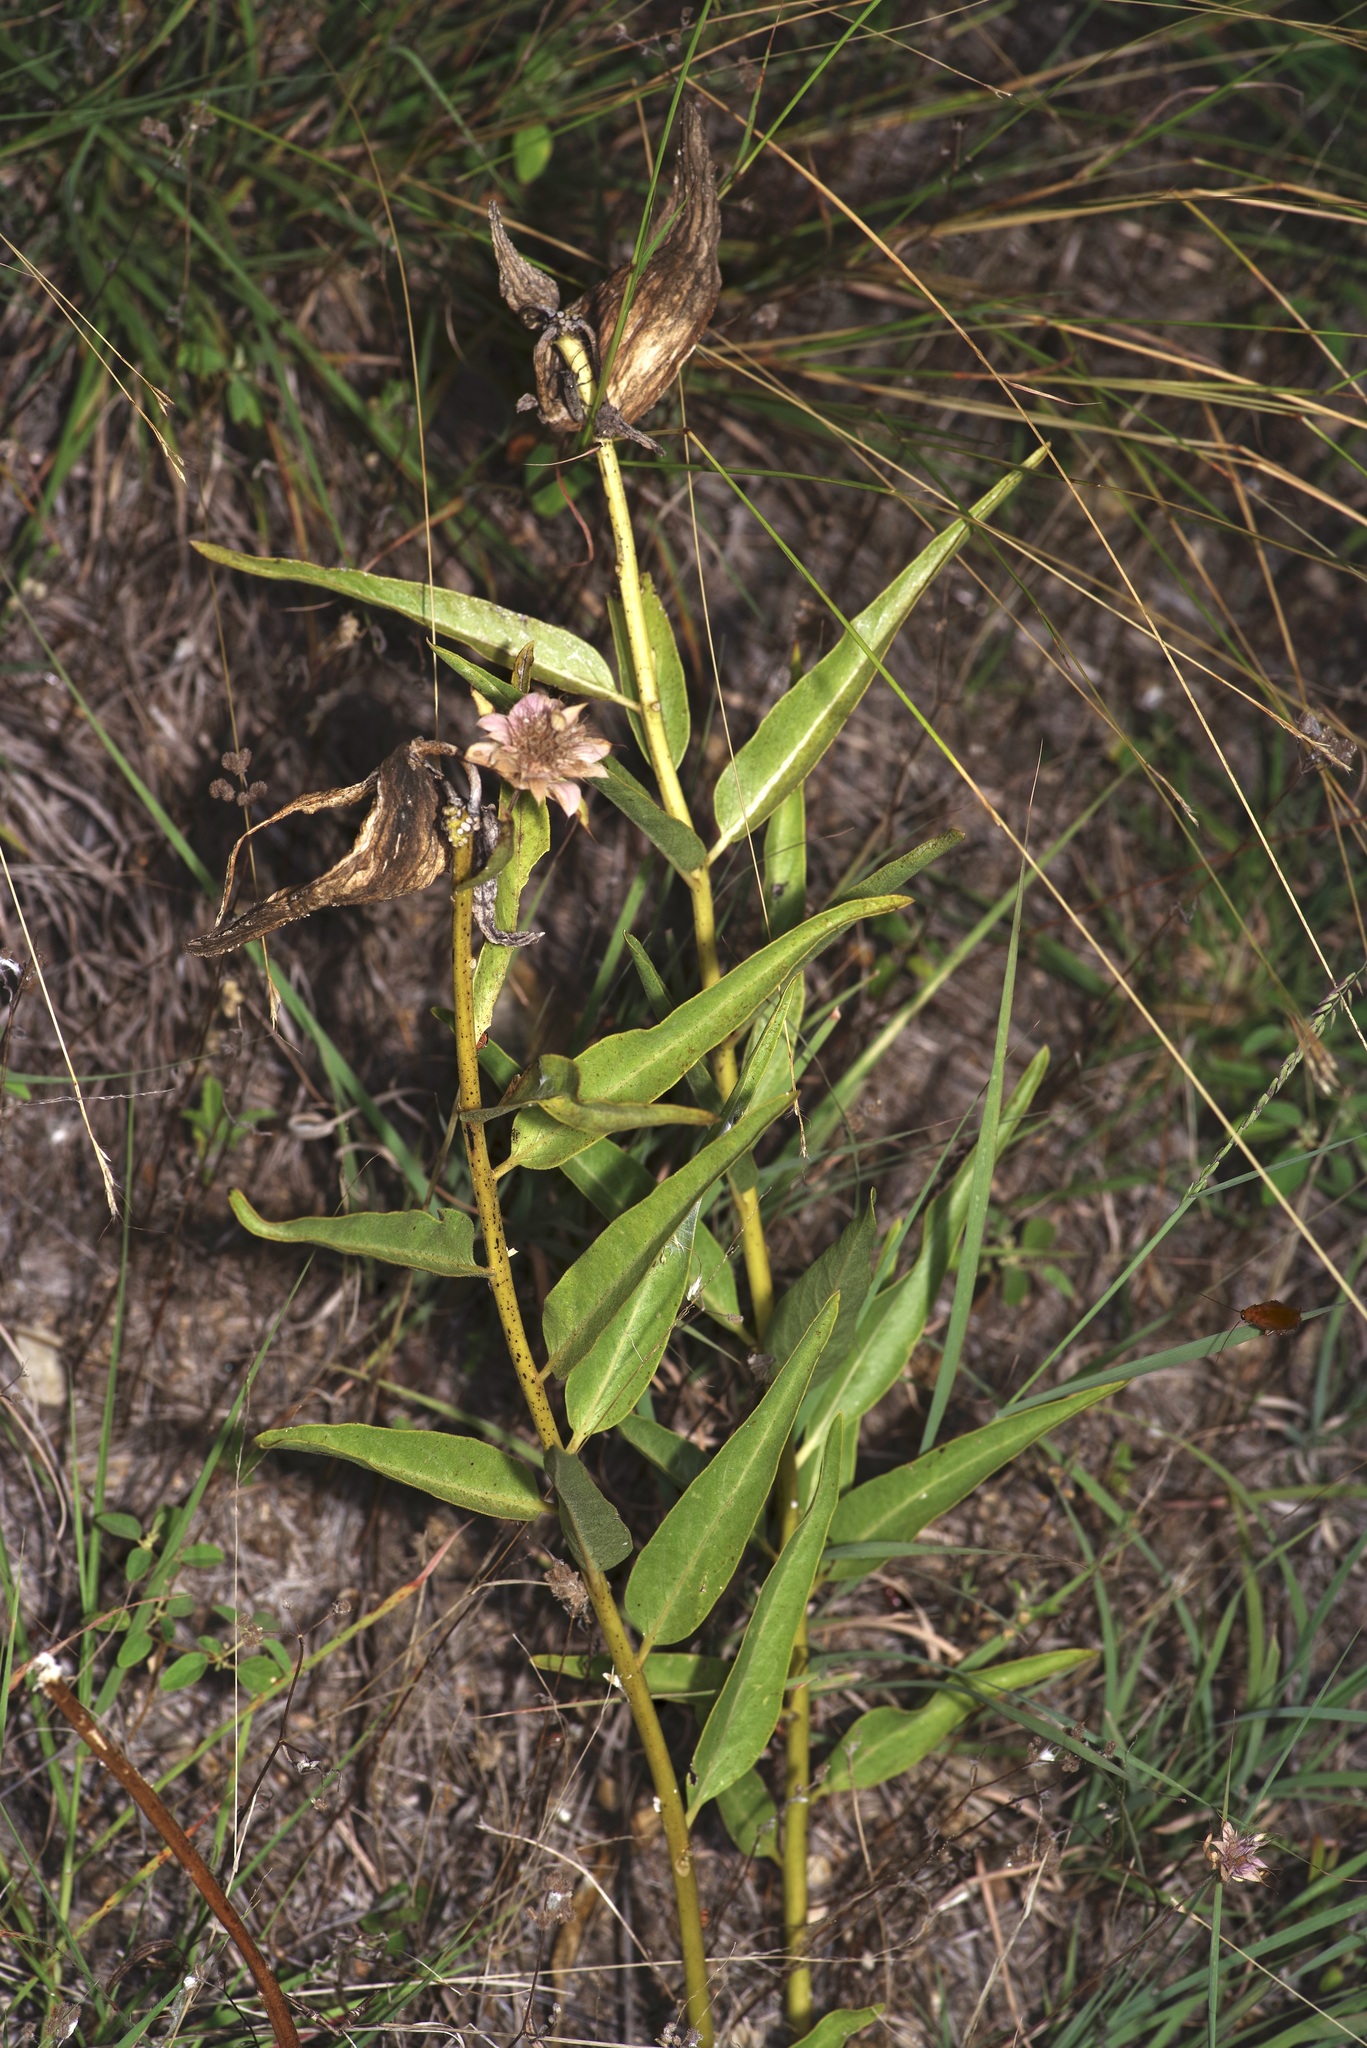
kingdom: Plantae
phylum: Tracheophyta
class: Magnoliopsida
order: Gentianales
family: Apocynaceae
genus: Asclepias
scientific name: Asclepias asperula
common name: Antelope horns
